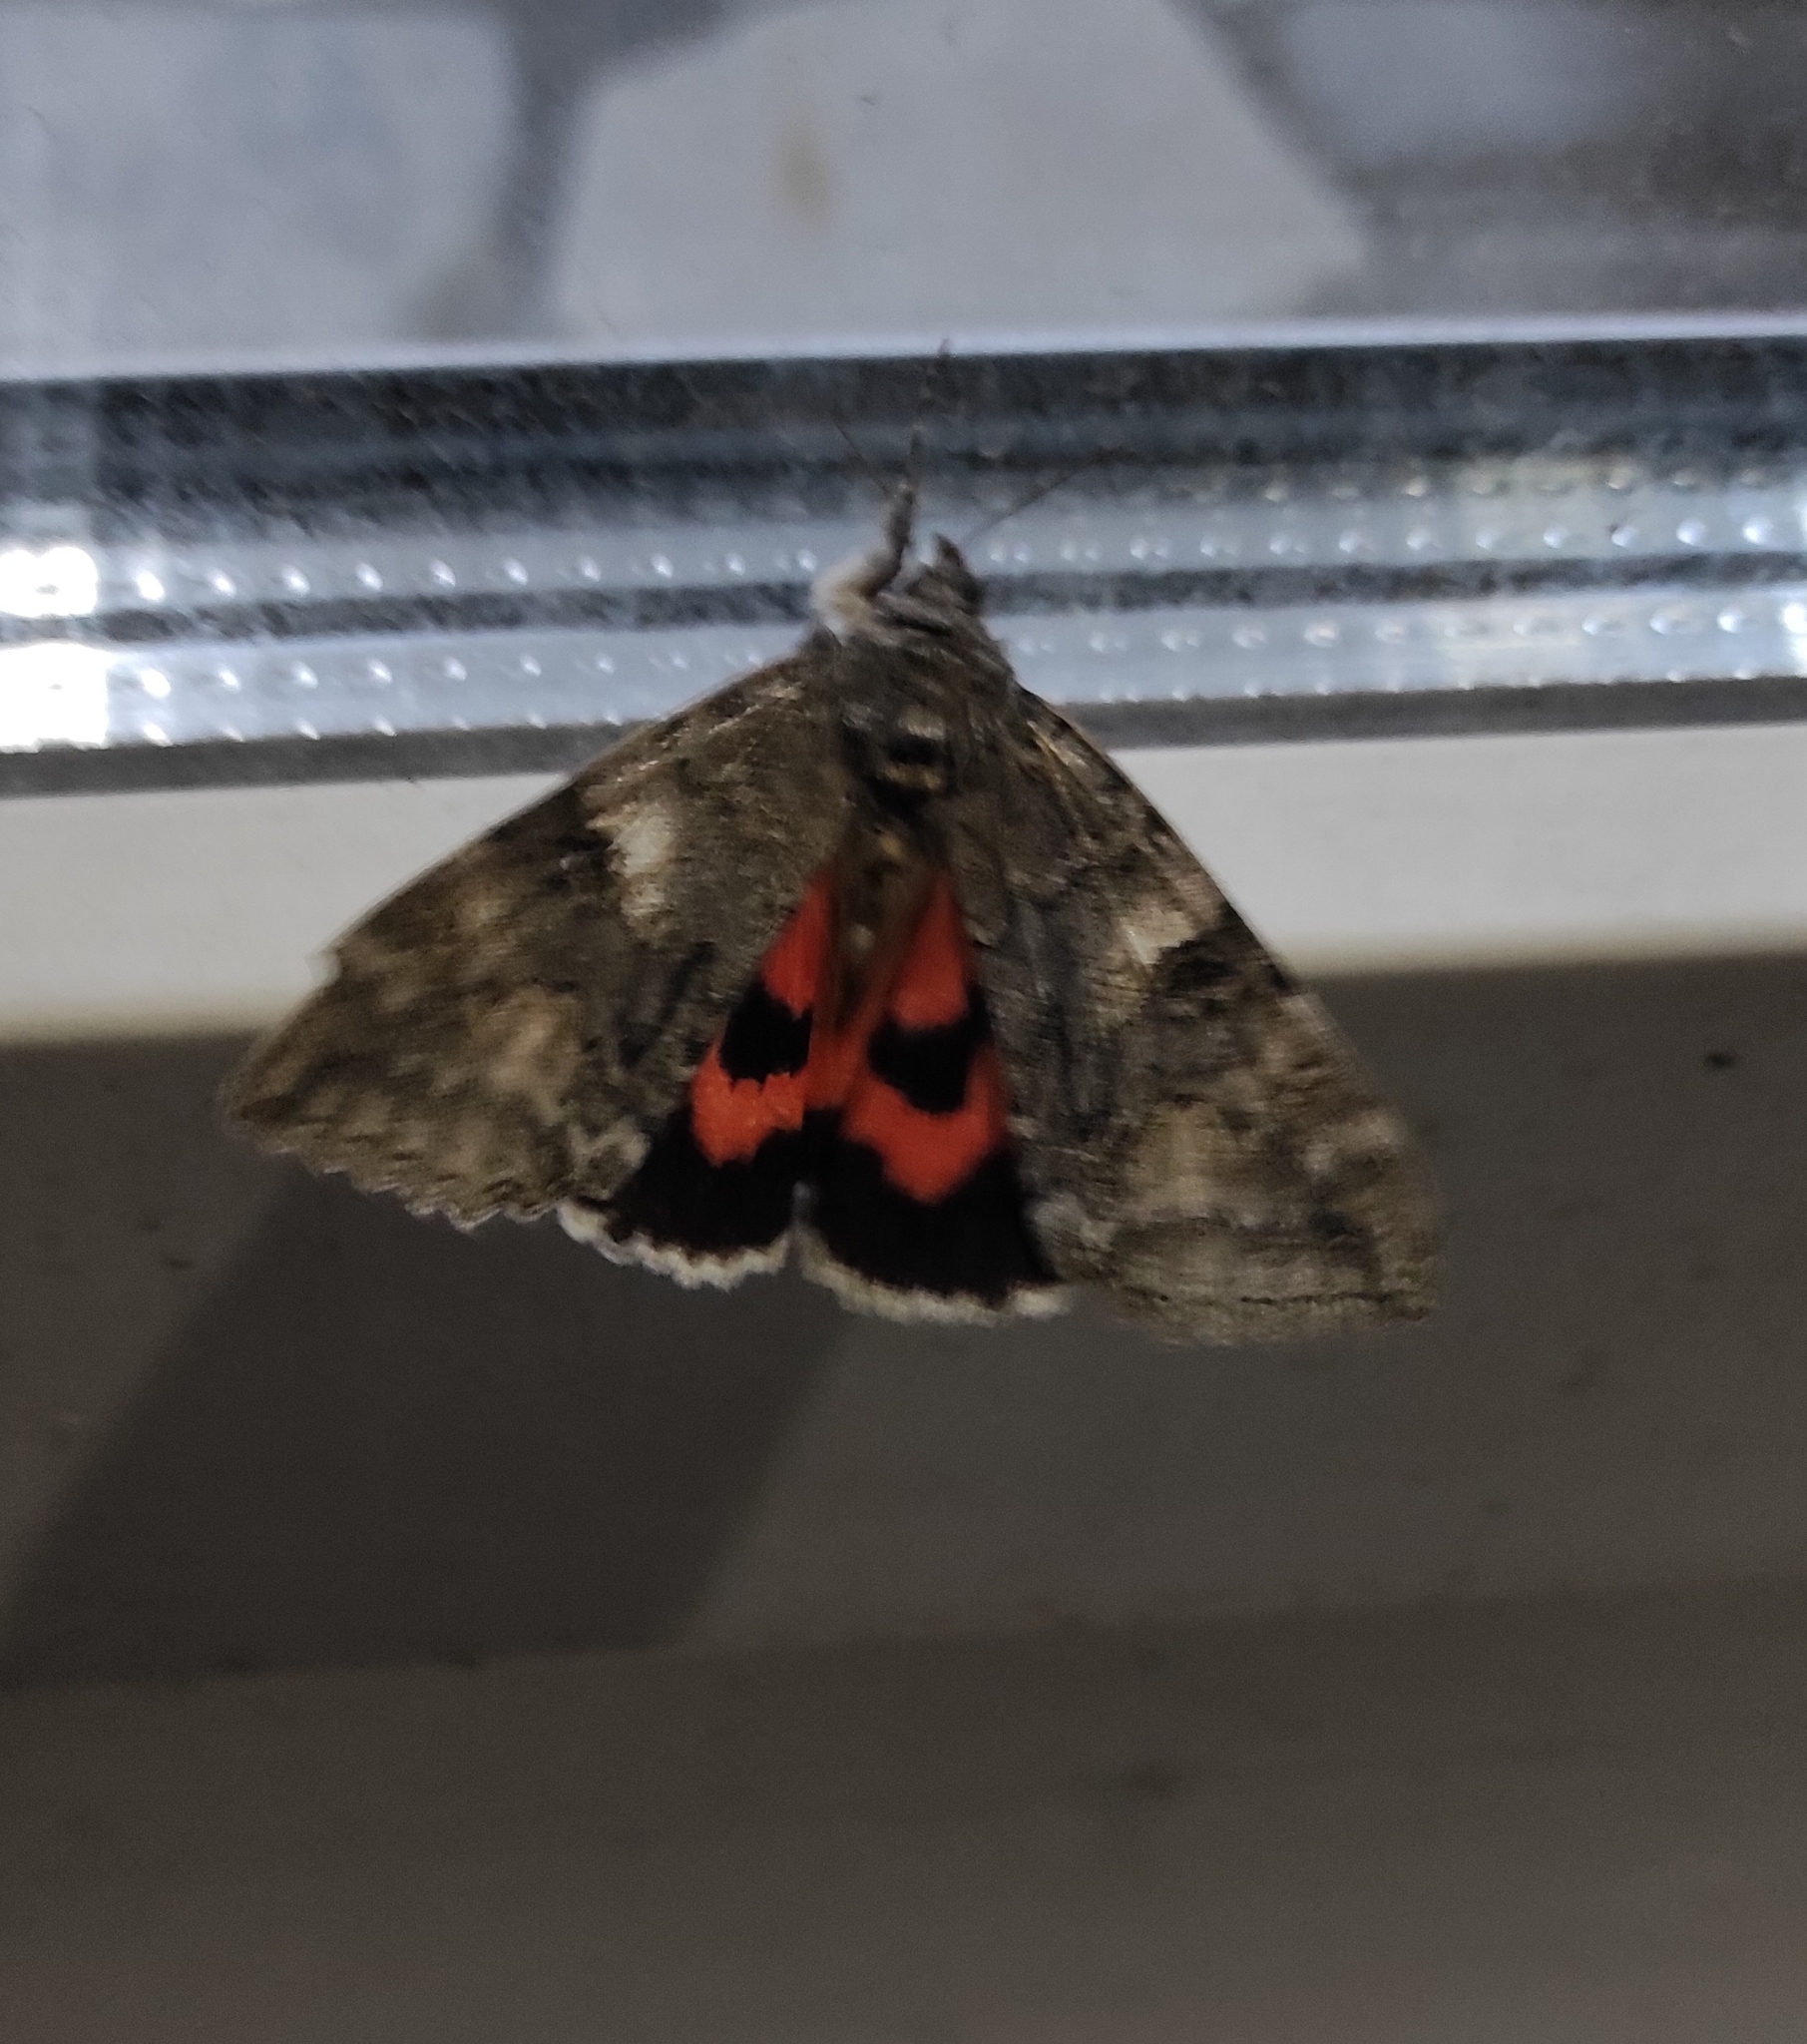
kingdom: Animalia
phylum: Arthropoda
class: Insecta
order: Lepidoptera
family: Erebidae
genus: Catocala
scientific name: Catocala nupta
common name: Red underwing
